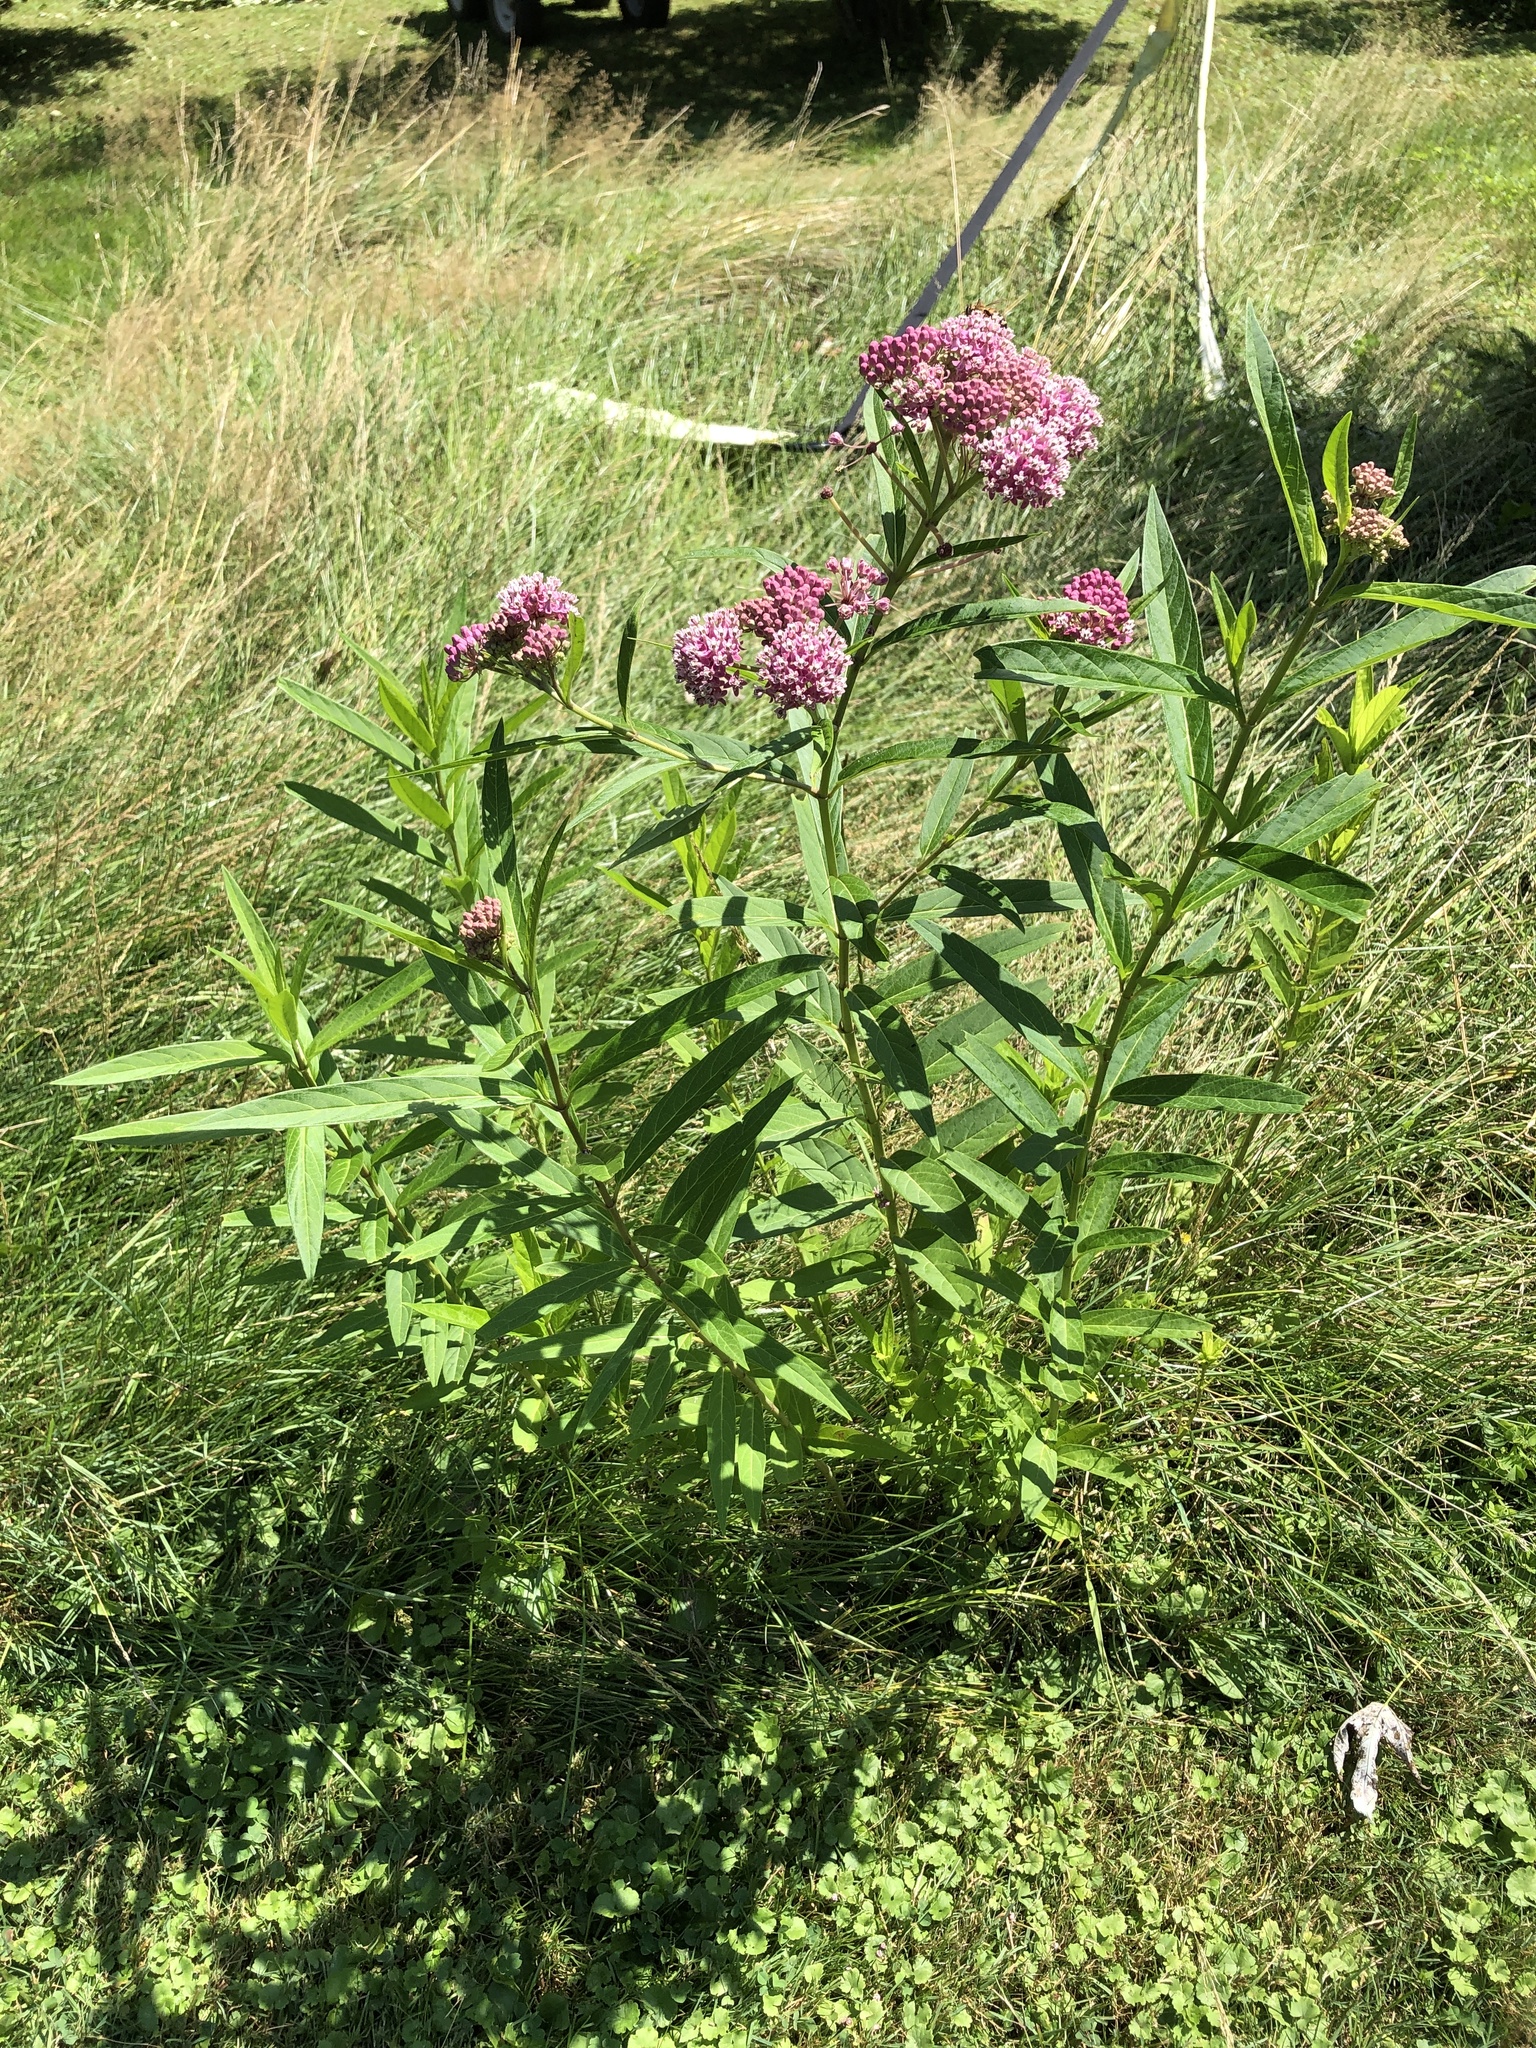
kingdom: Plantae
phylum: Tracheophyta
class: Magnoliopsida
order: Gentianales
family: Apocynaceae
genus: Asclepias
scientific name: Asclepias incarnata
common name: Swamp milkweed
